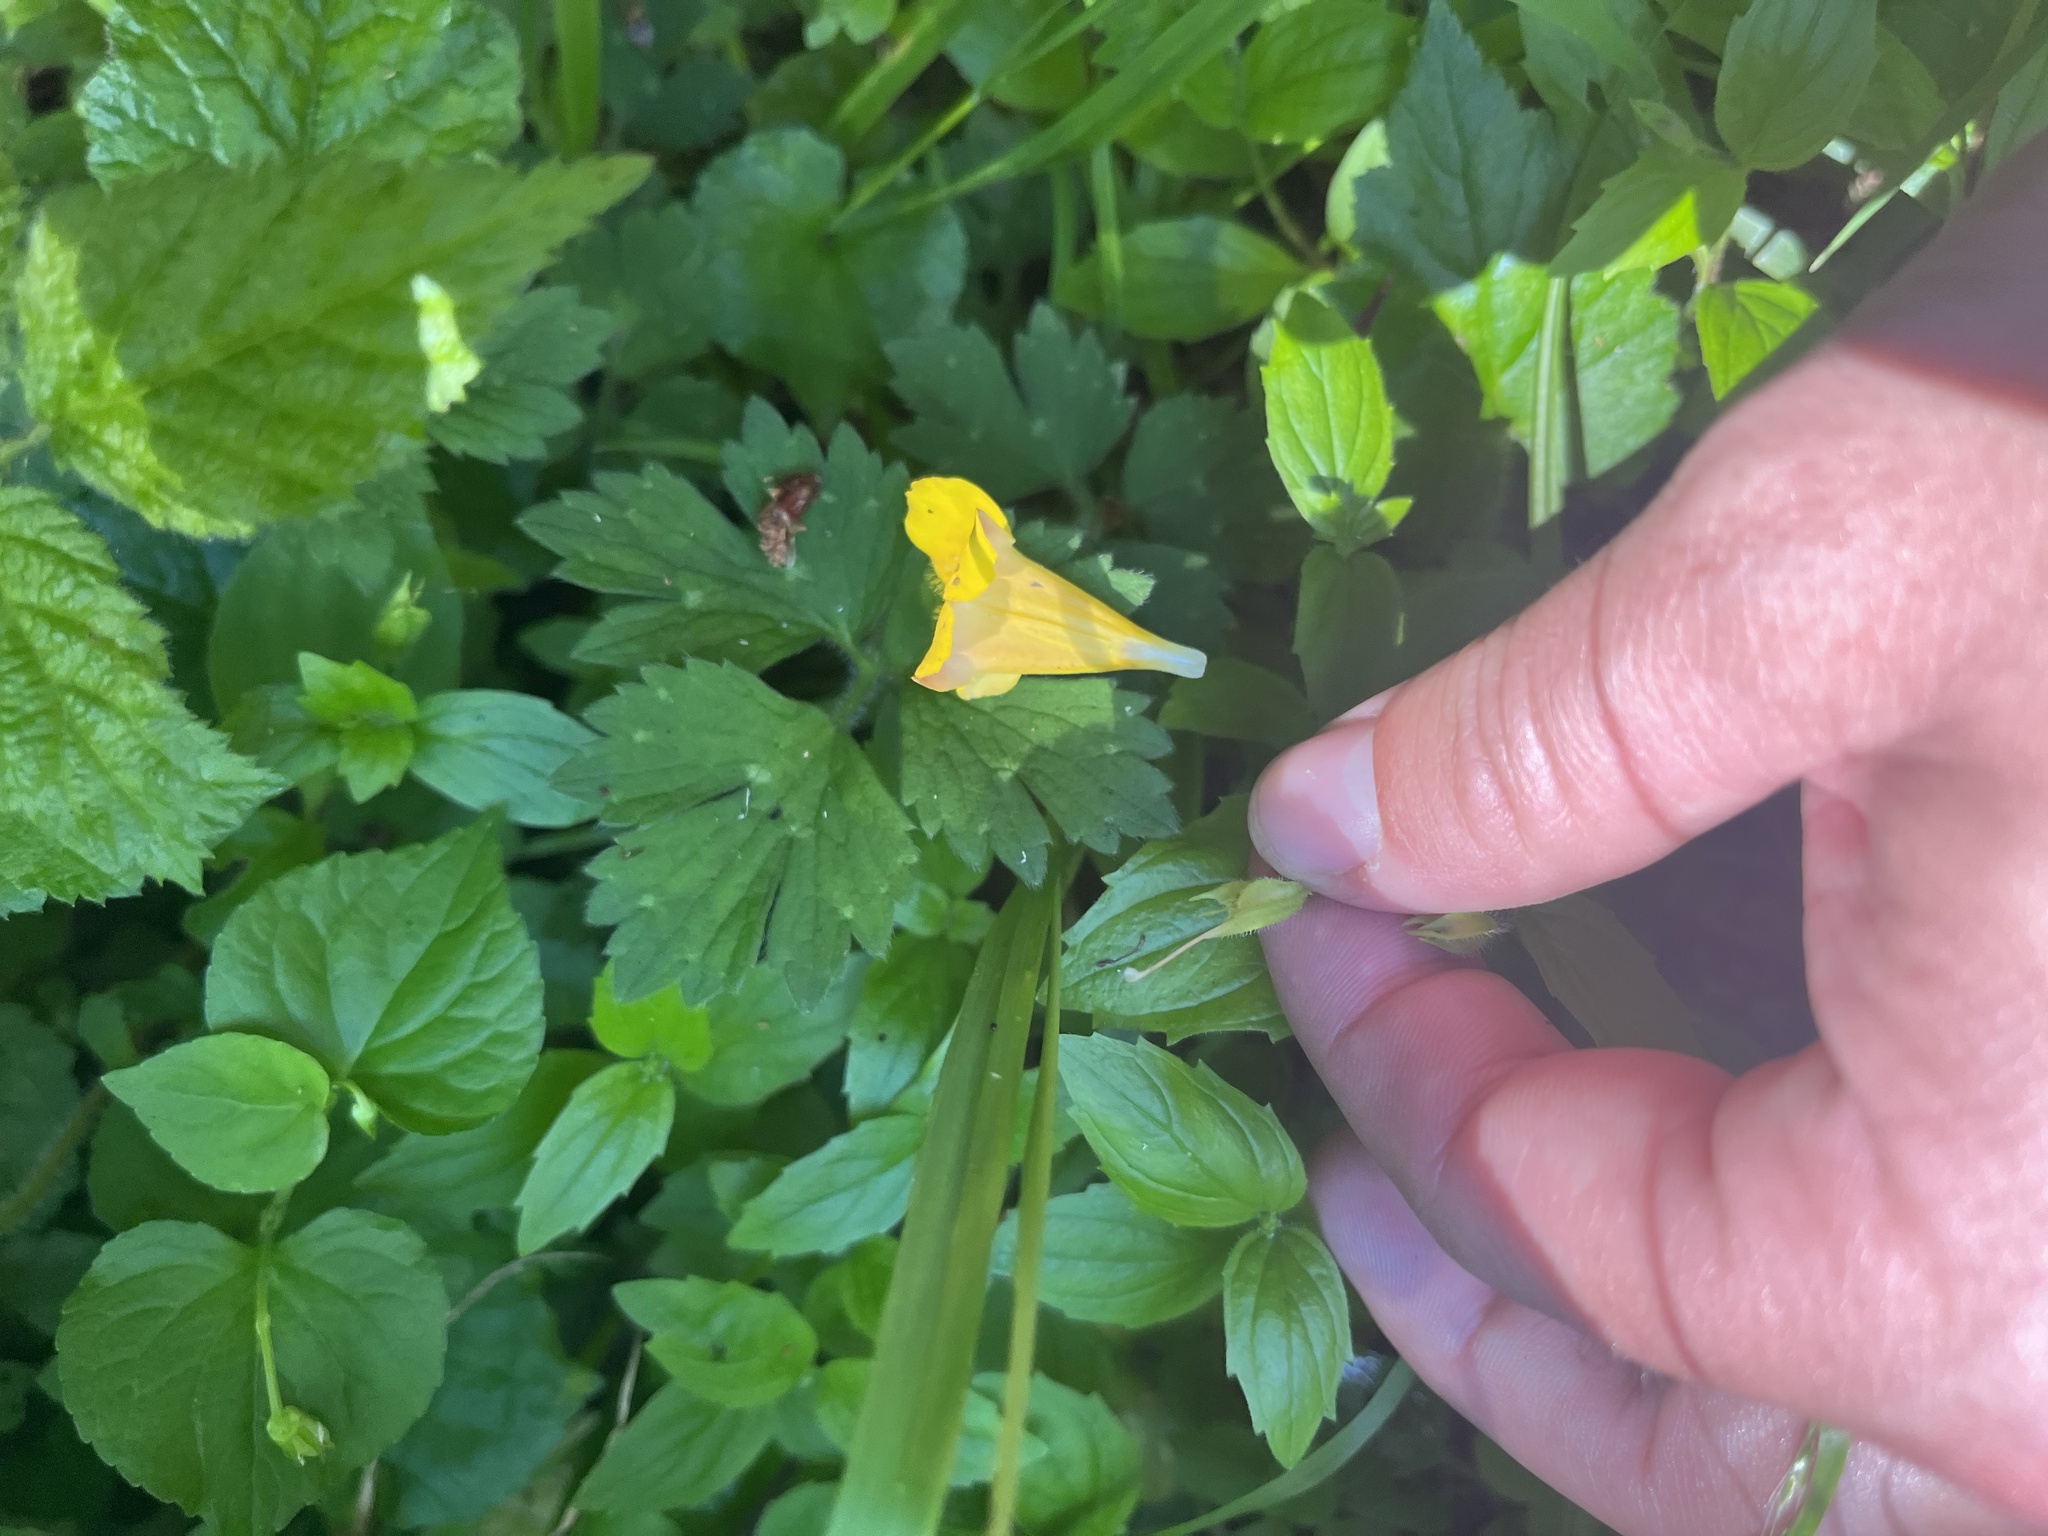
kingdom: Plantae
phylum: Tracheophyta
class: Magnoliopsida
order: Lamiales
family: Phrymaceae
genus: Erythranthe
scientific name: Erythranthe dentata
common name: Coastal monkeyflower
